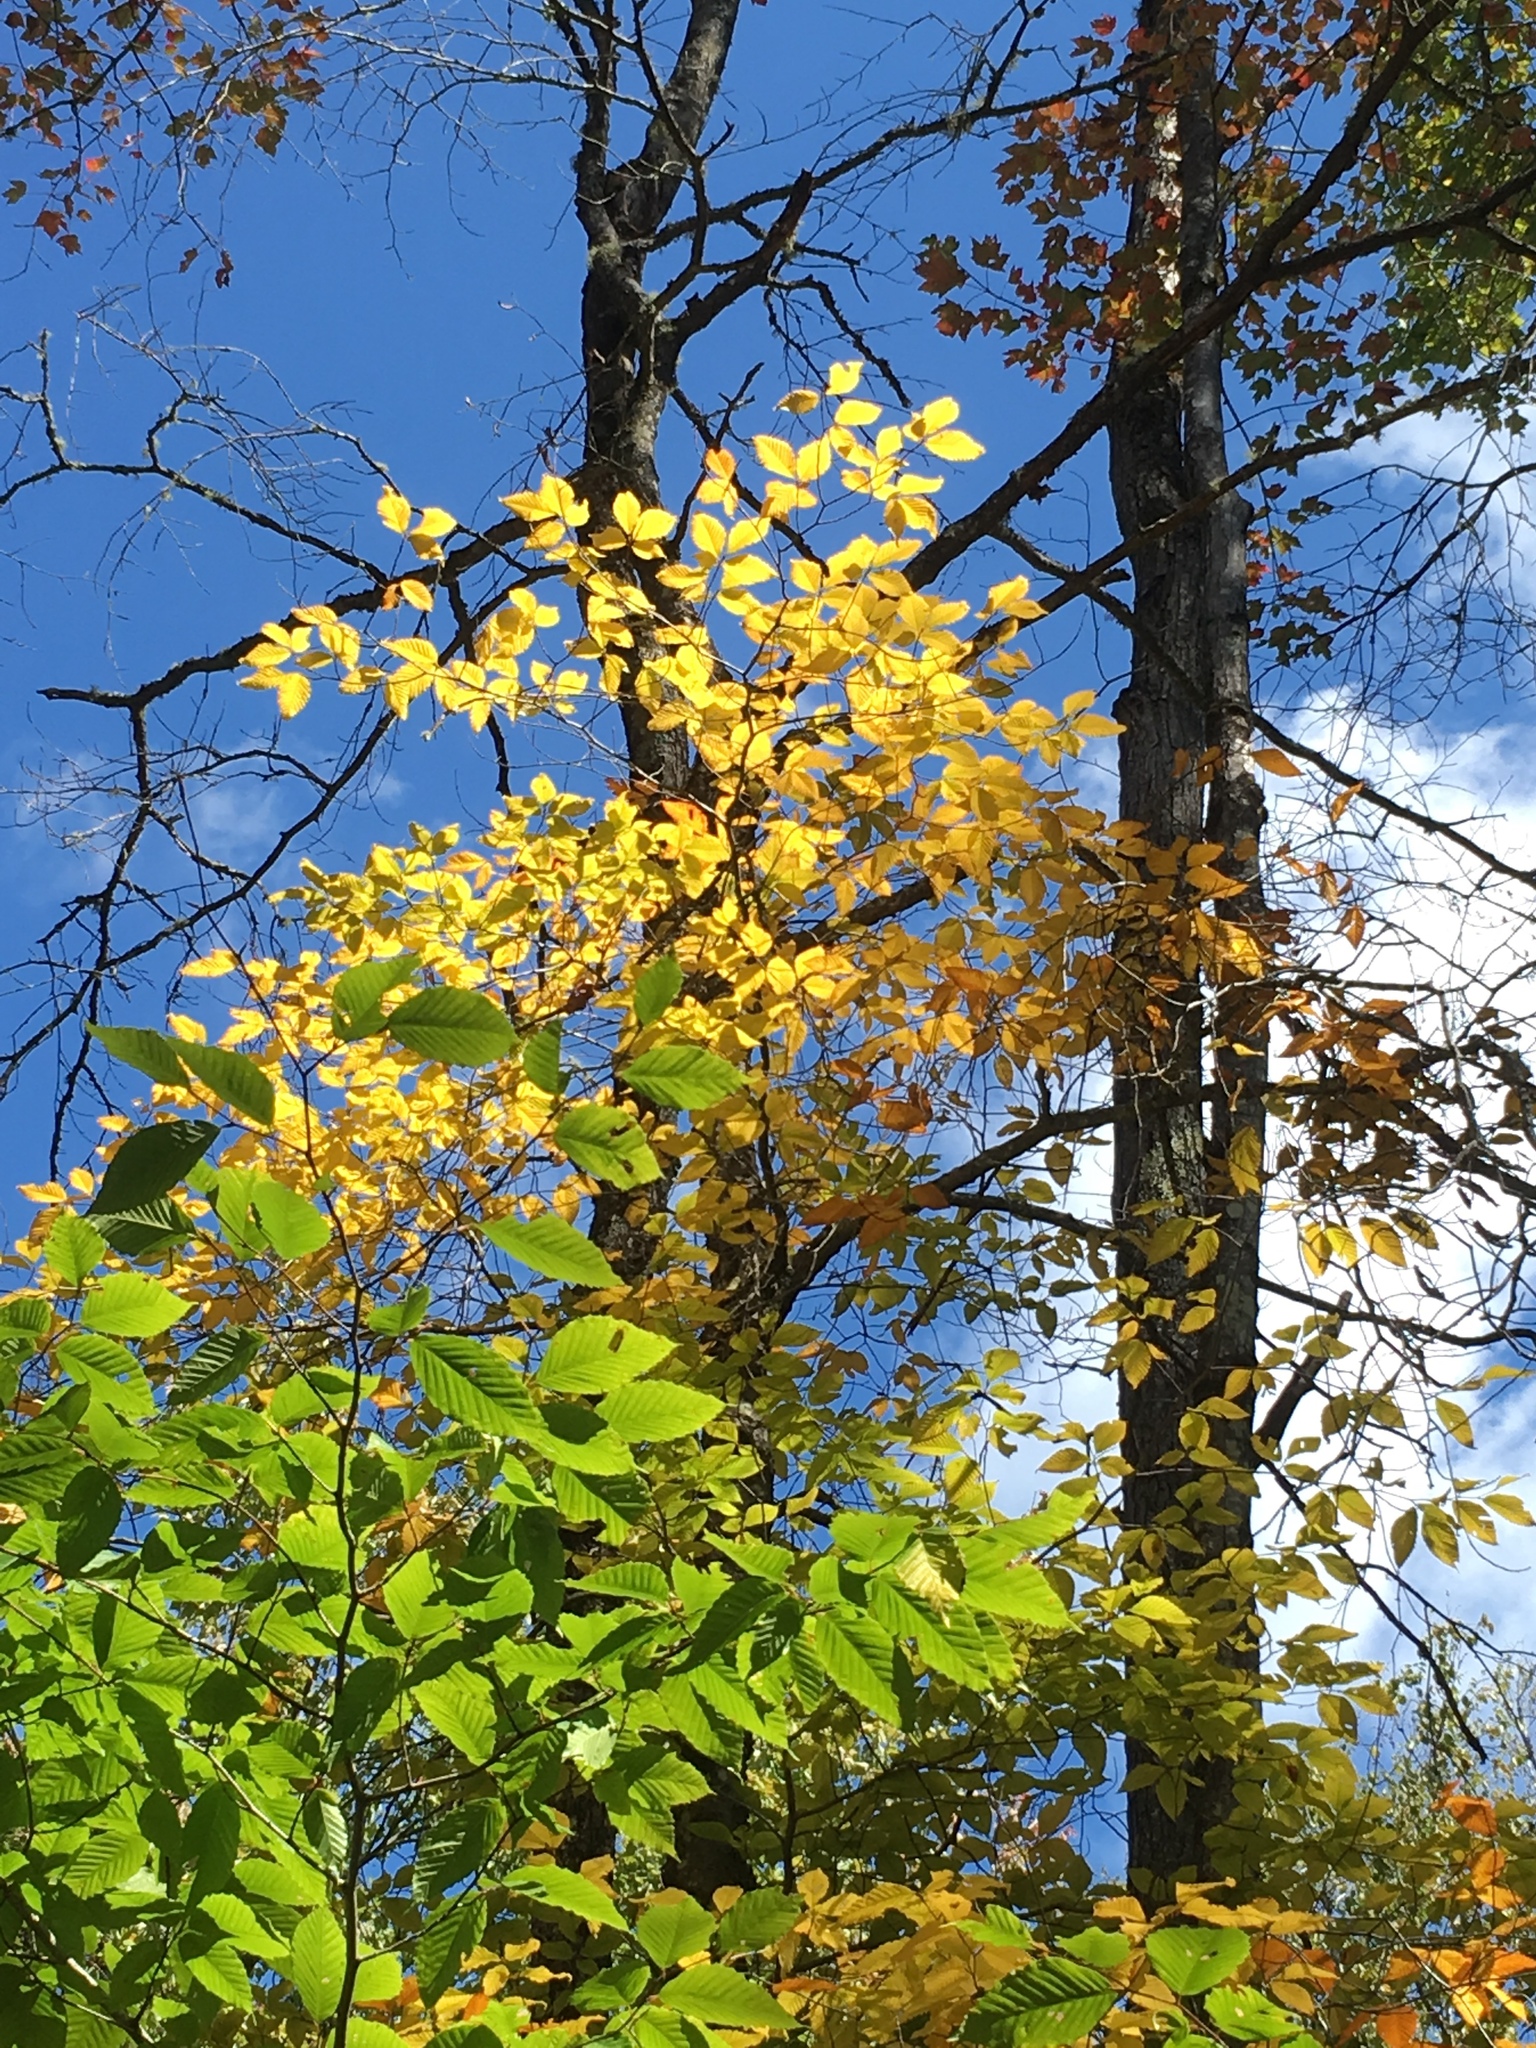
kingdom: Plantae
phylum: Tracheophyta
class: Magnoliopsida
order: Fagales
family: Fagaceae
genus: Fagus
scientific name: Fagus grandifolia
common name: American beech
